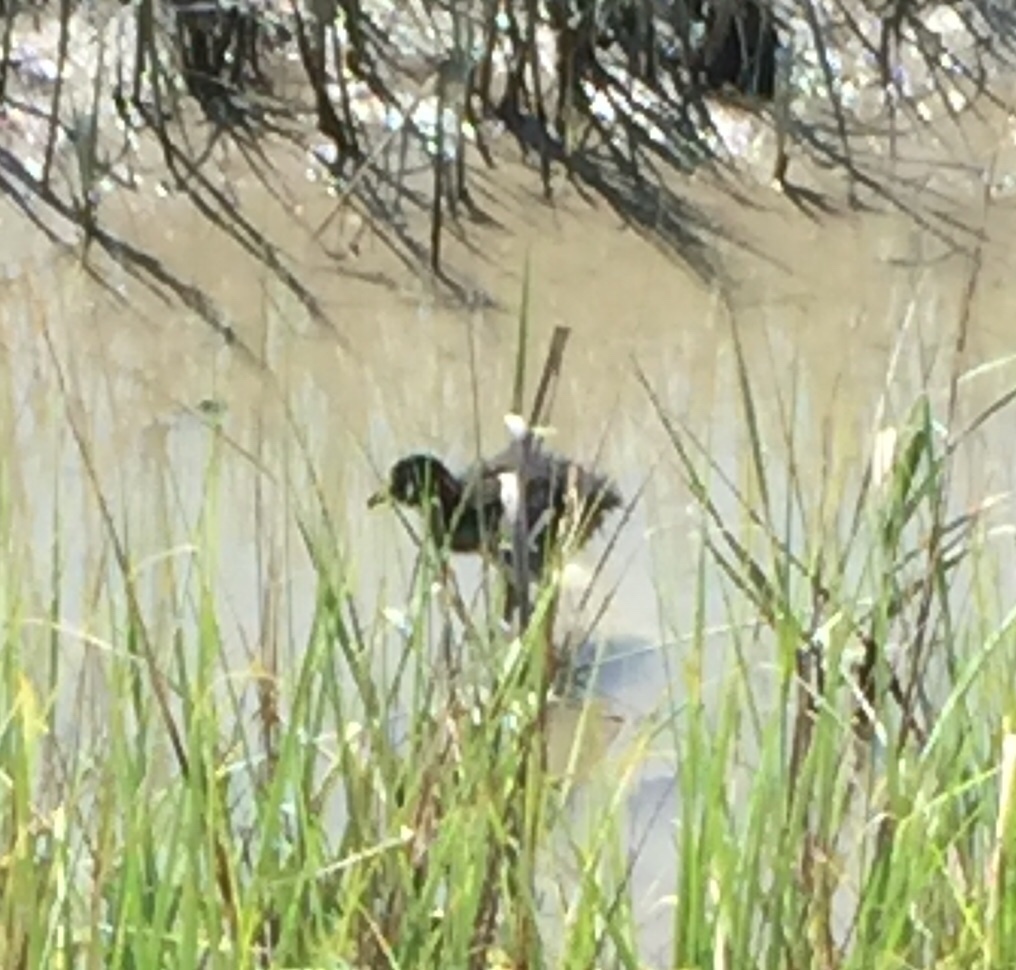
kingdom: Animalia
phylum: Chordata
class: Aves
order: Gruiformes
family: Rallidae
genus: Rallus
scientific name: Rallus crepitans
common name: Clapper rail
